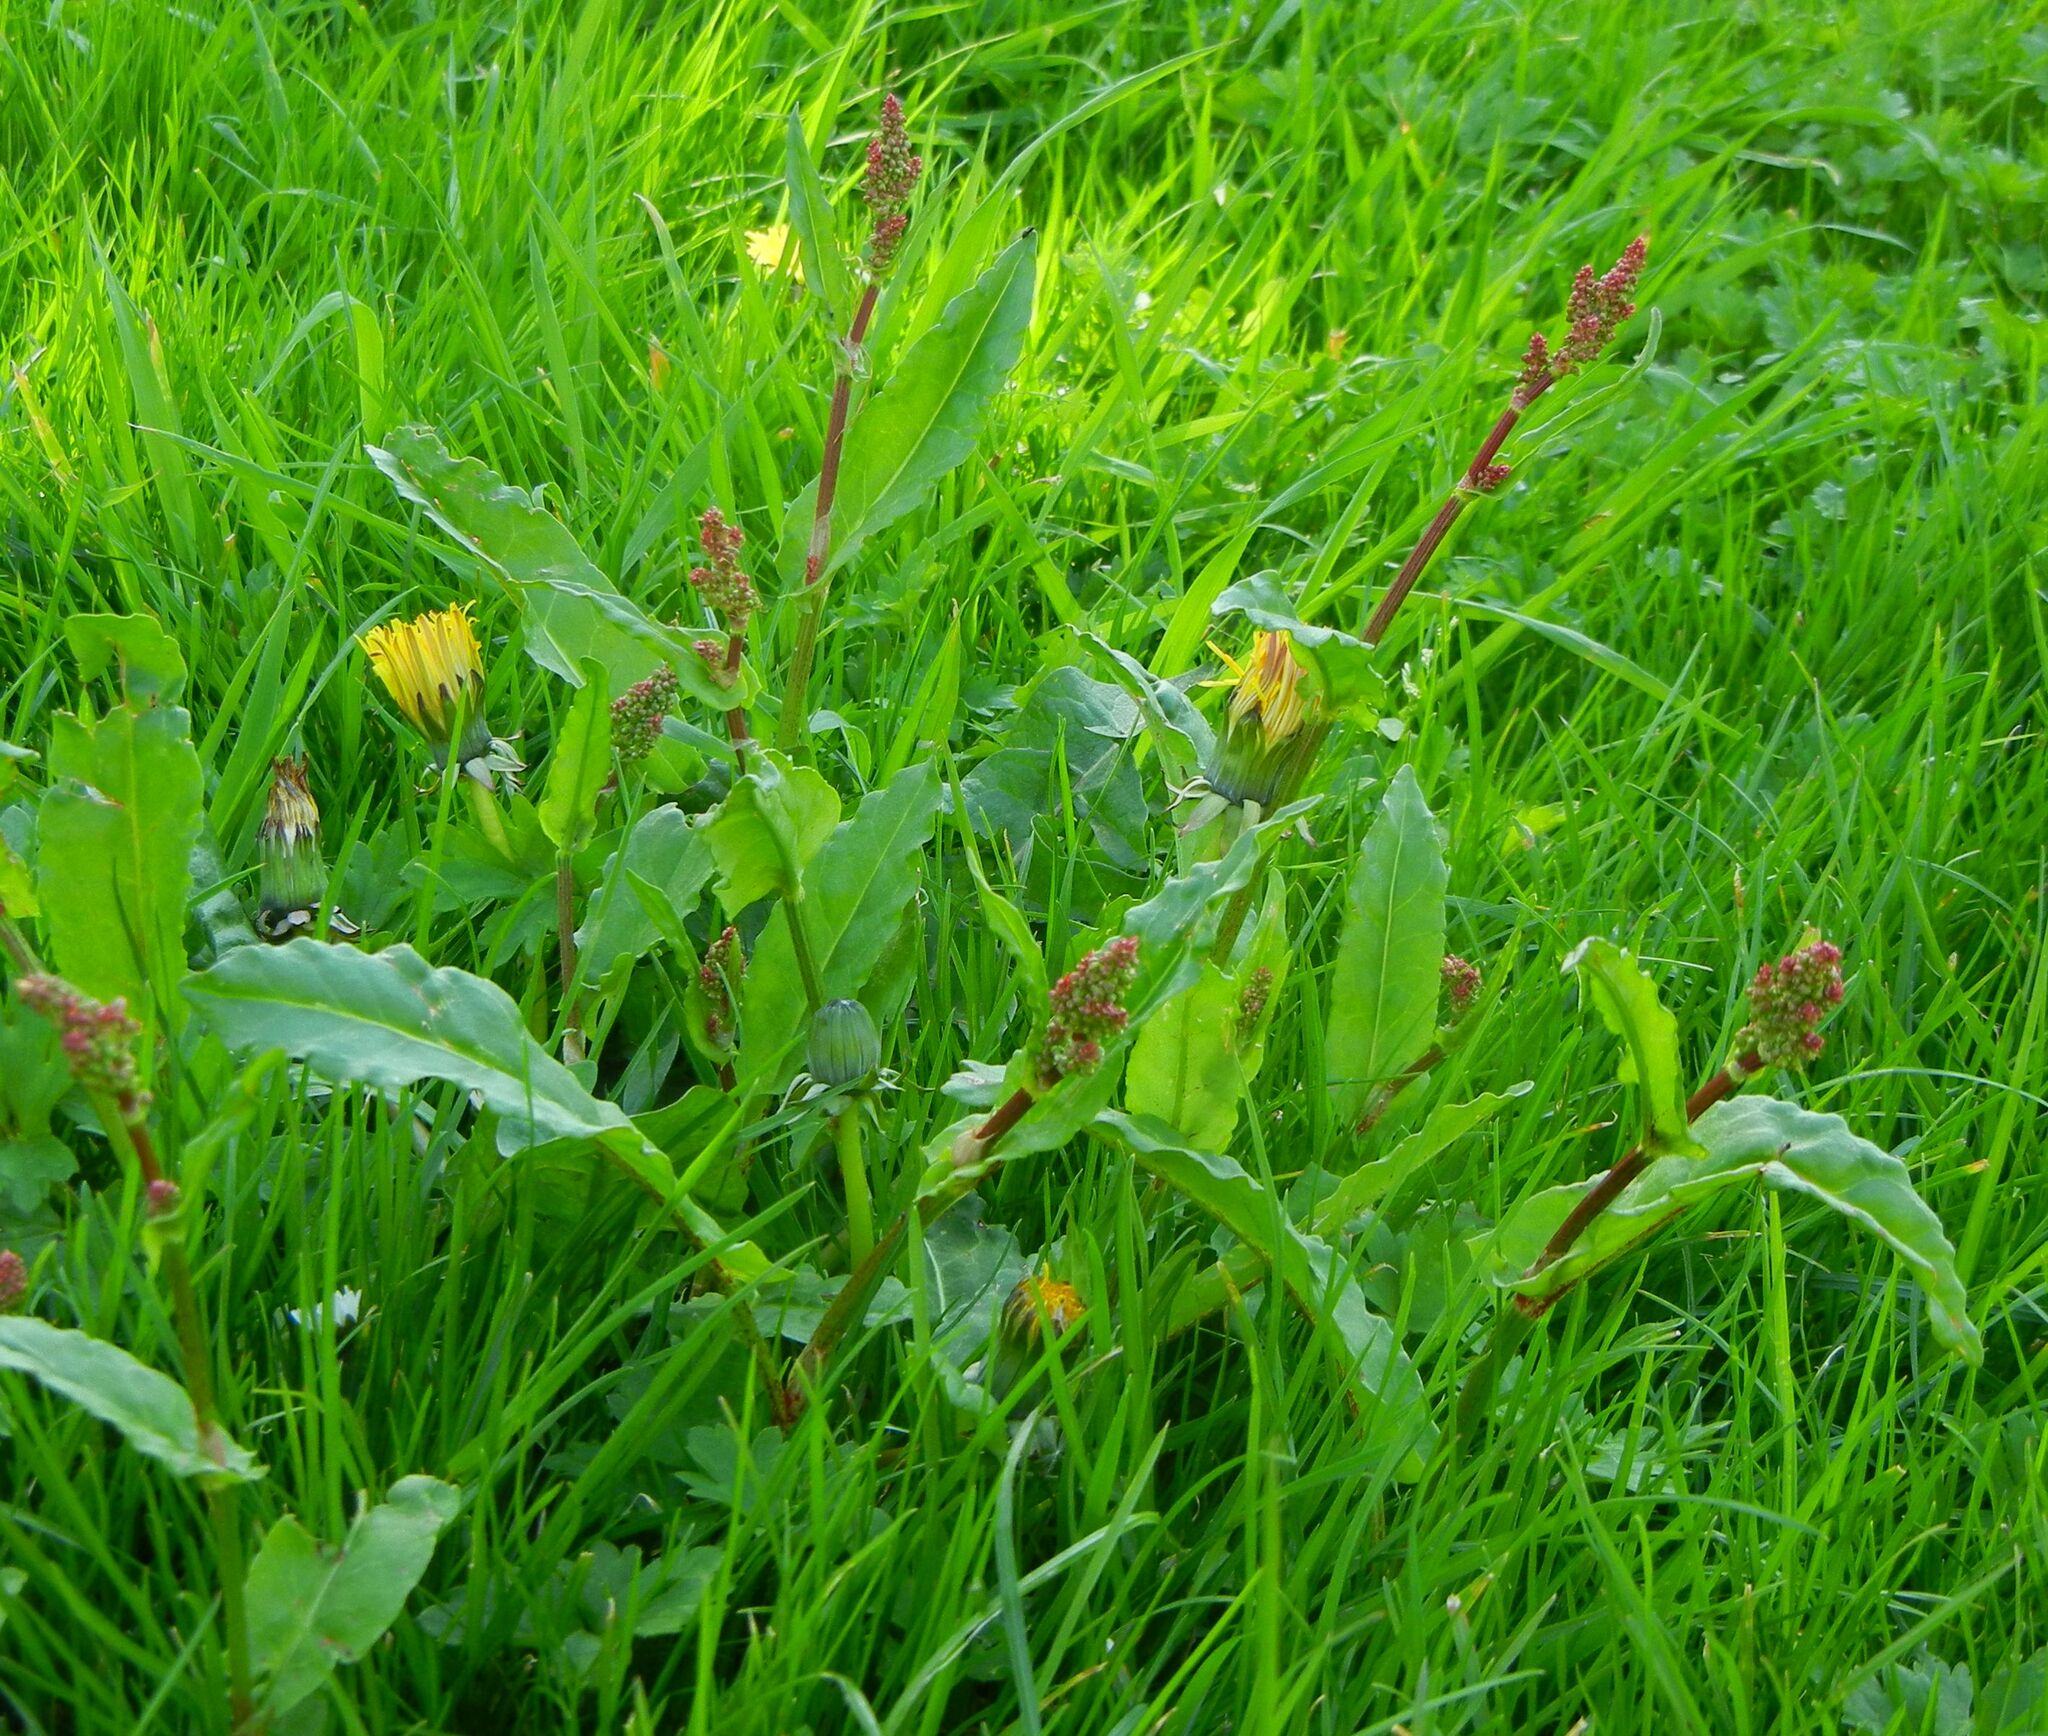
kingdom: Plantae
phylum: Tracheophyta
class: Magnoliopsida
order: Caryophyllales
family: Polygonaceae
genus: Rumex
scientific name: Rumex acetosa
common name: Garden sorrel
